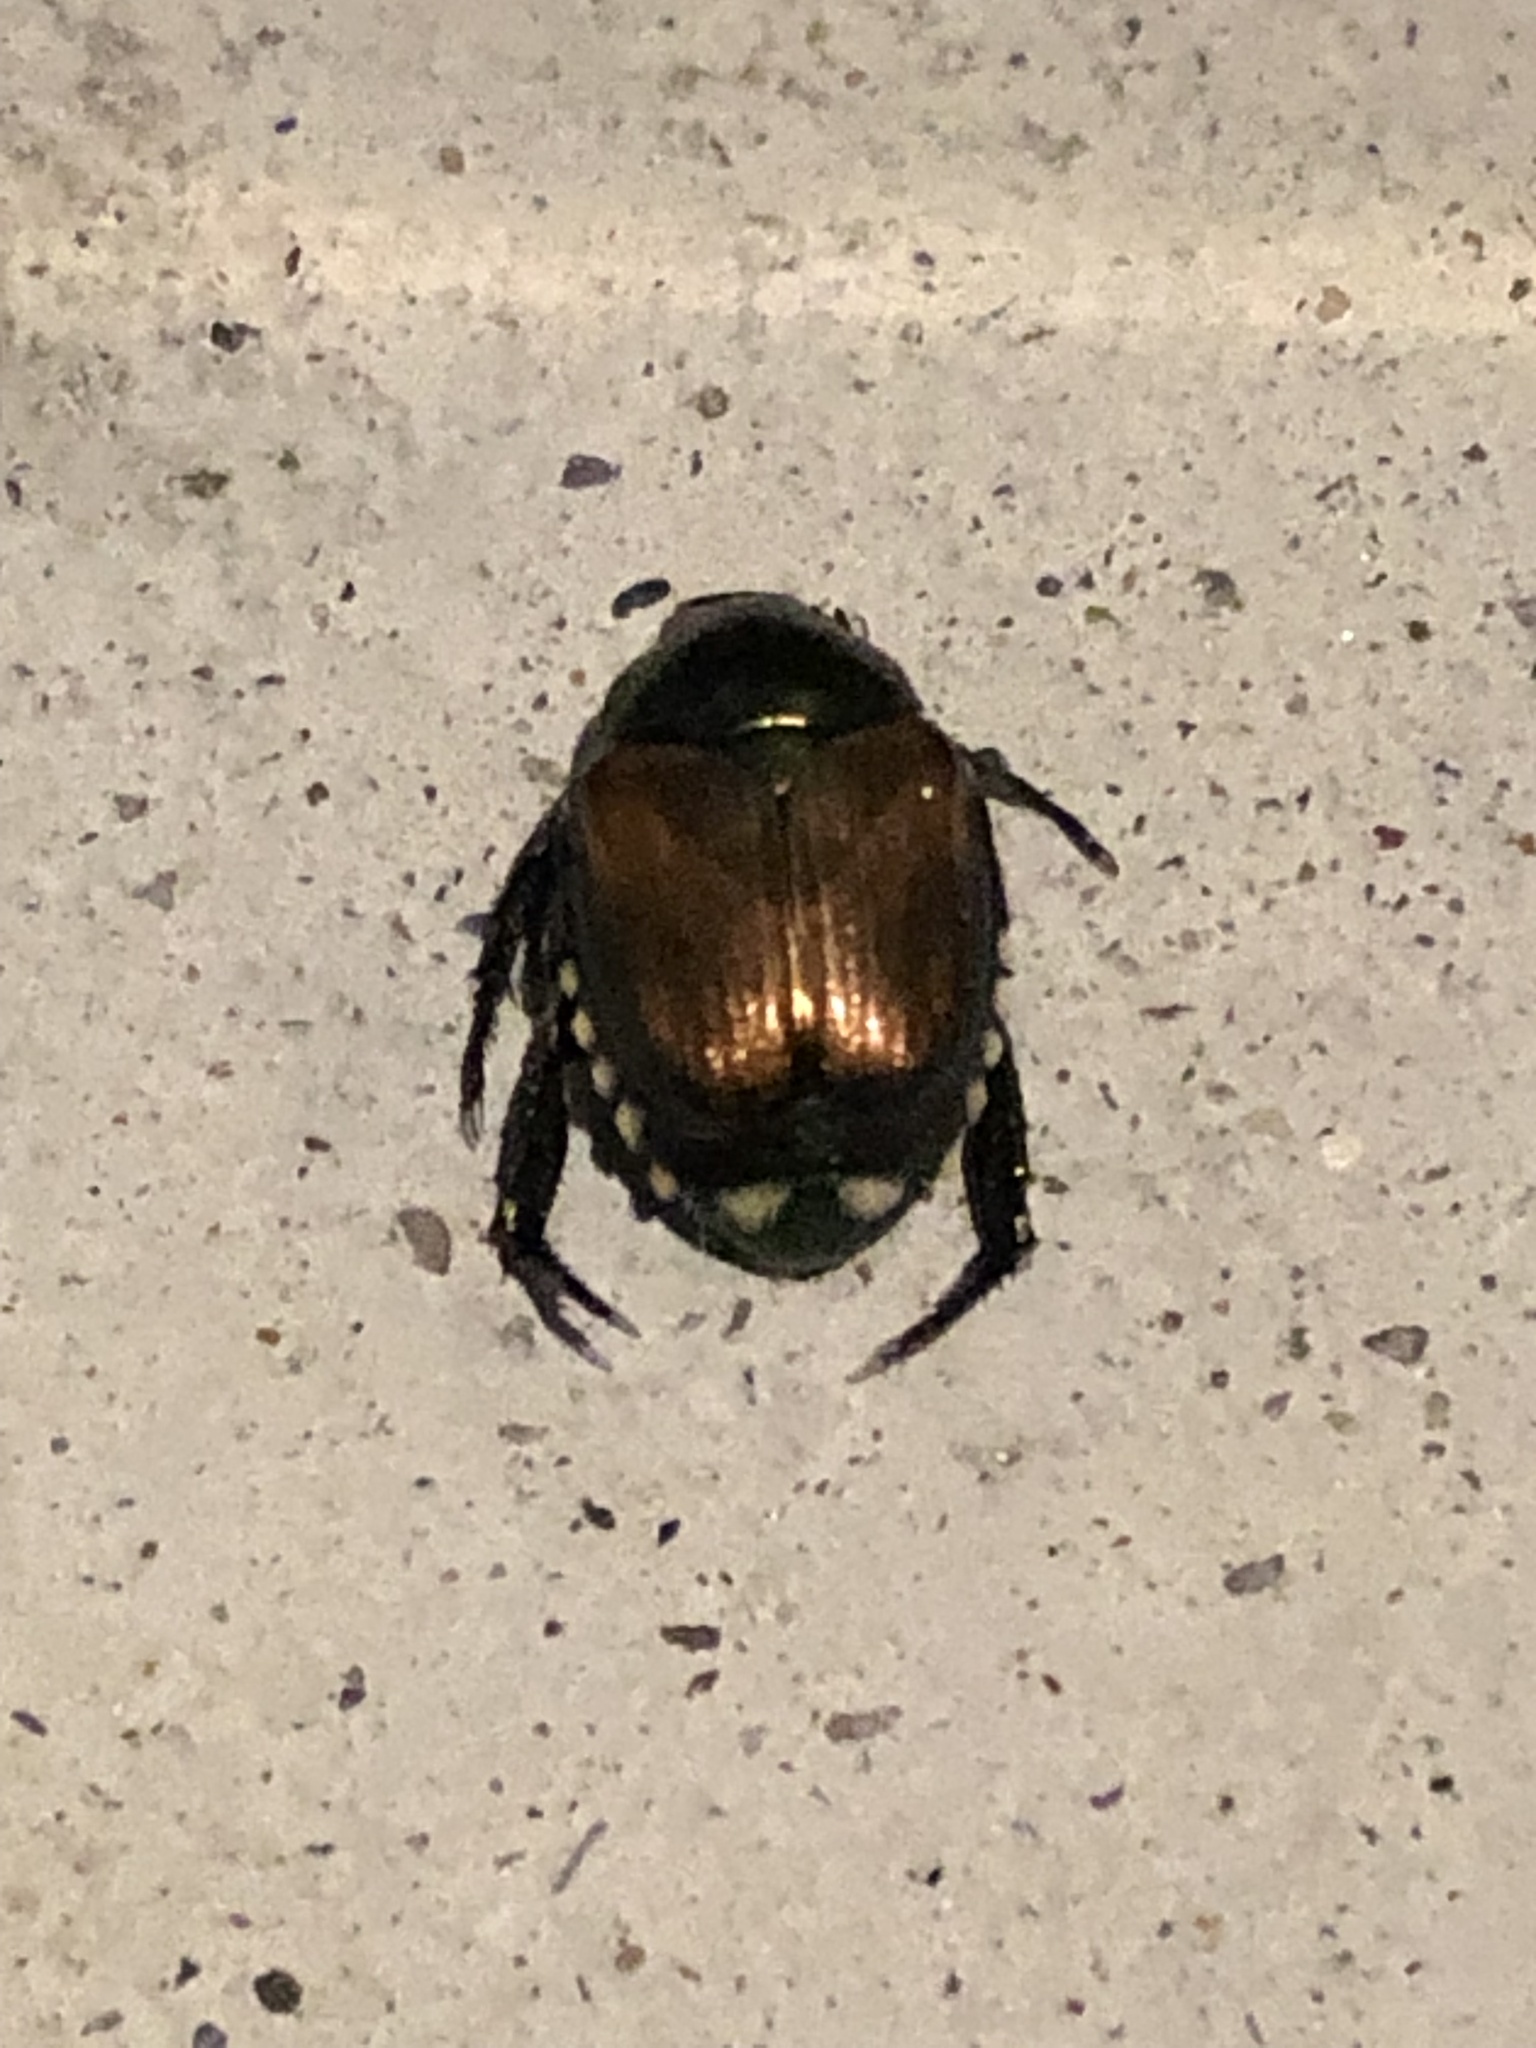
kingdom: Animalia
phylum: Arthropoda
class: Insecta
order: Coleoptera
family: Scarabaeidae
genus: Popillia
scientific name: Popillia japonica
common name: Japanese beetle
